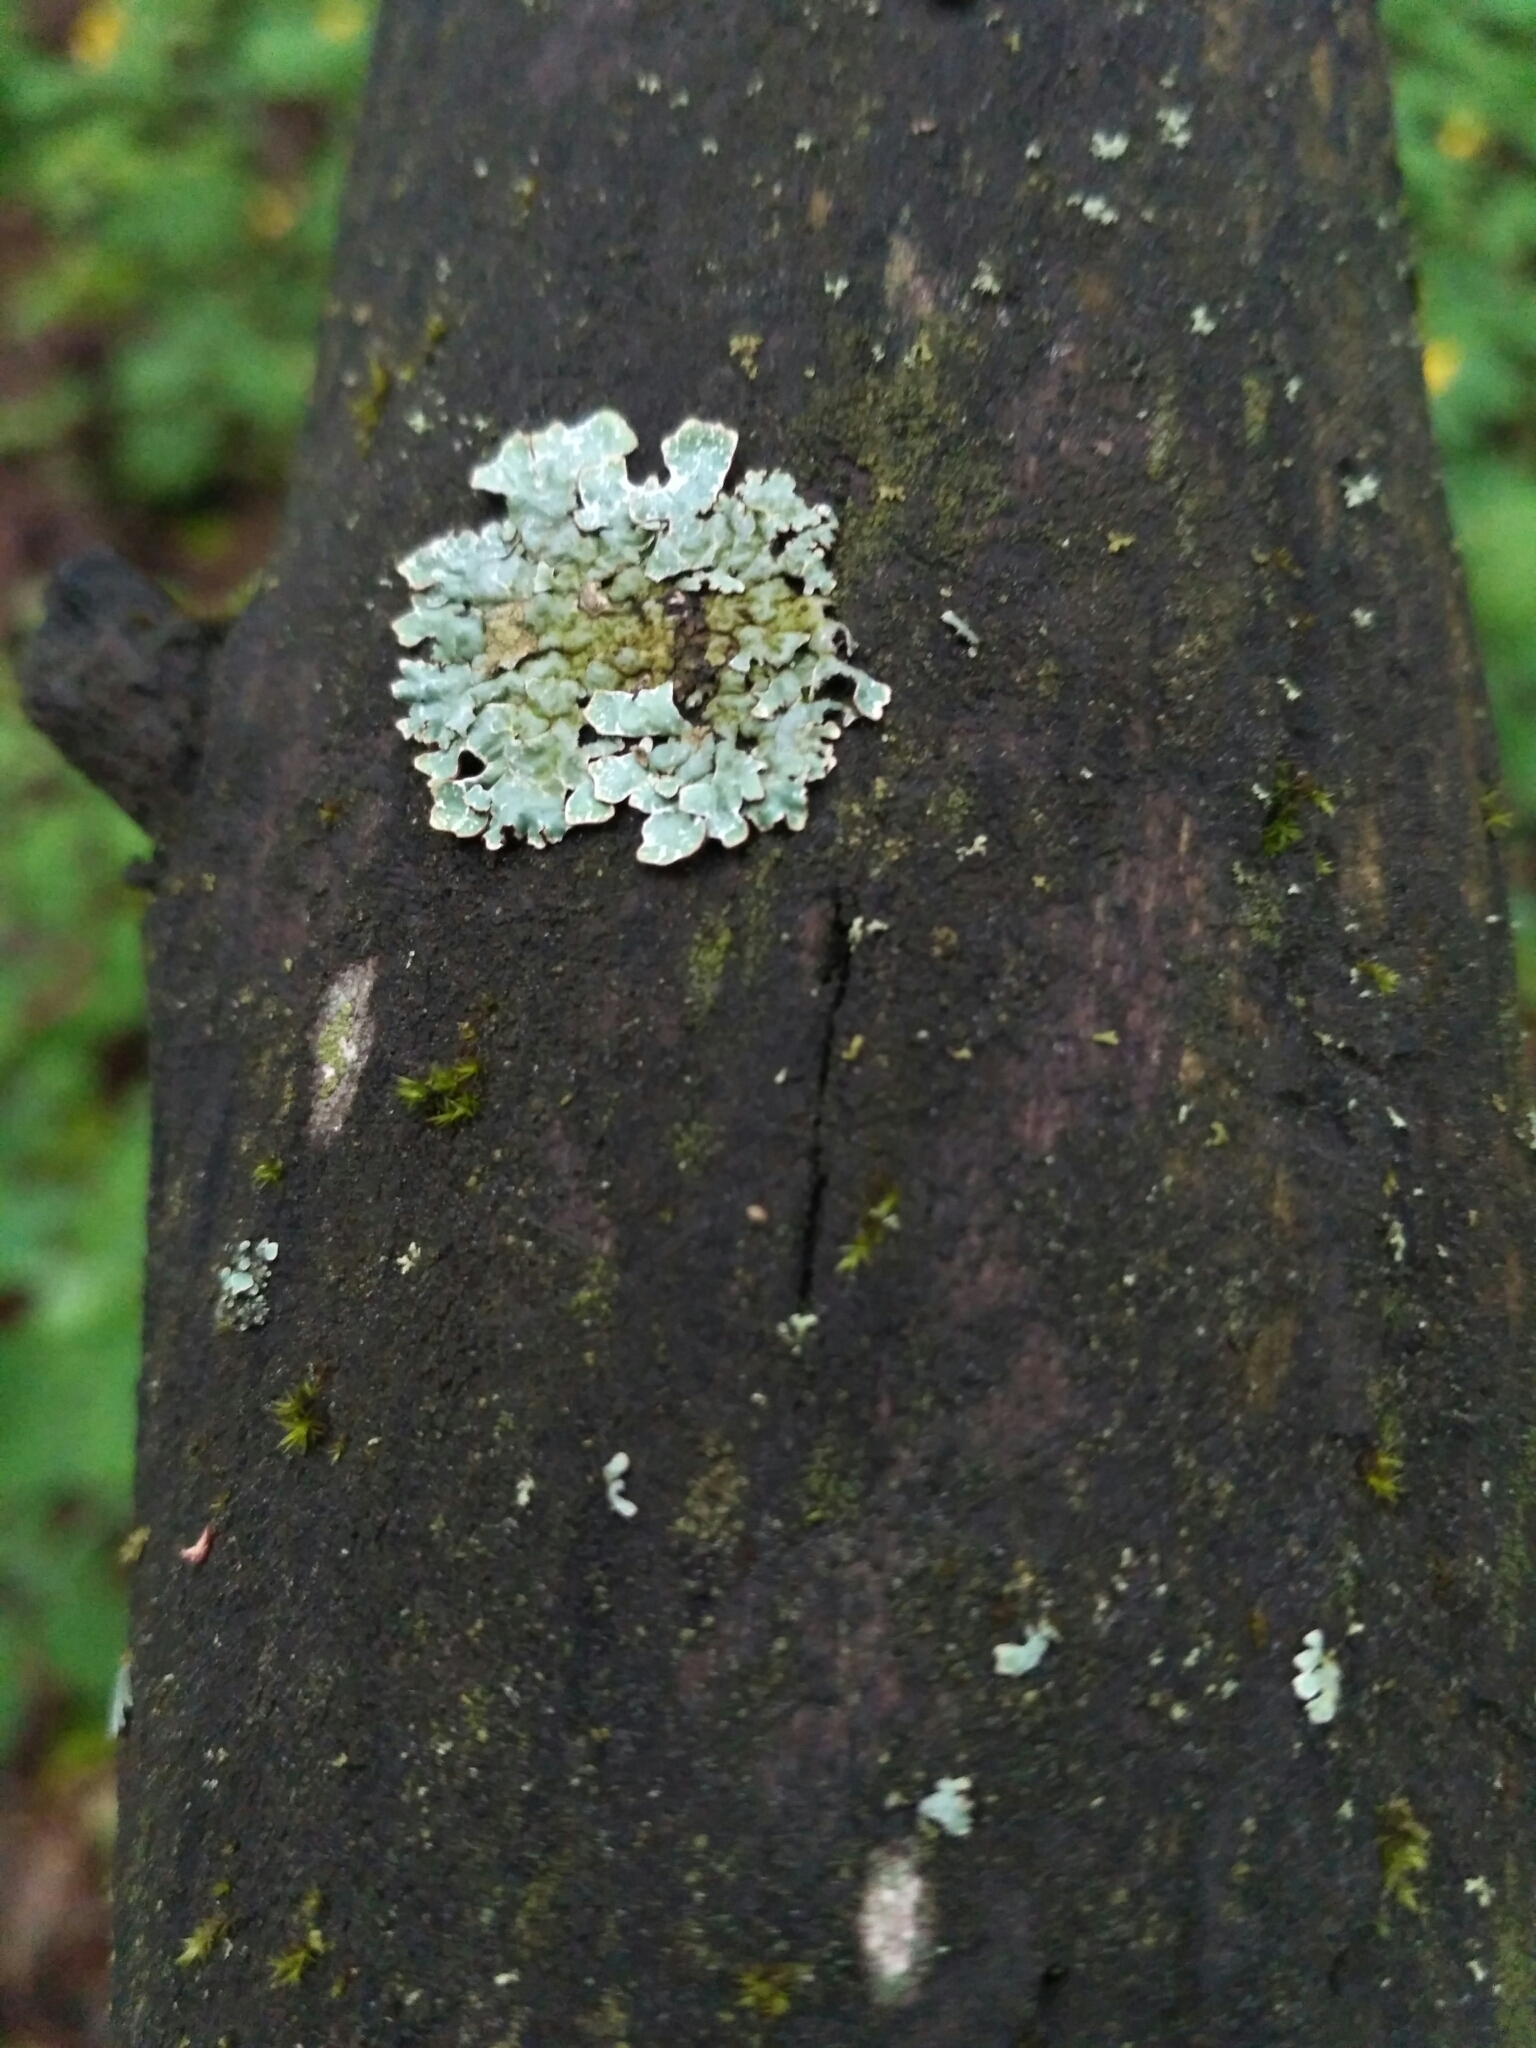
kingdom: Fungi
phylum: Ascomycota
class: Lecanoromycetes
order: Lecanorales
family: Parmeliaceae
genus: Parmelia
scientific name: Parmelia sulcata
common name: Netted shield lichen
